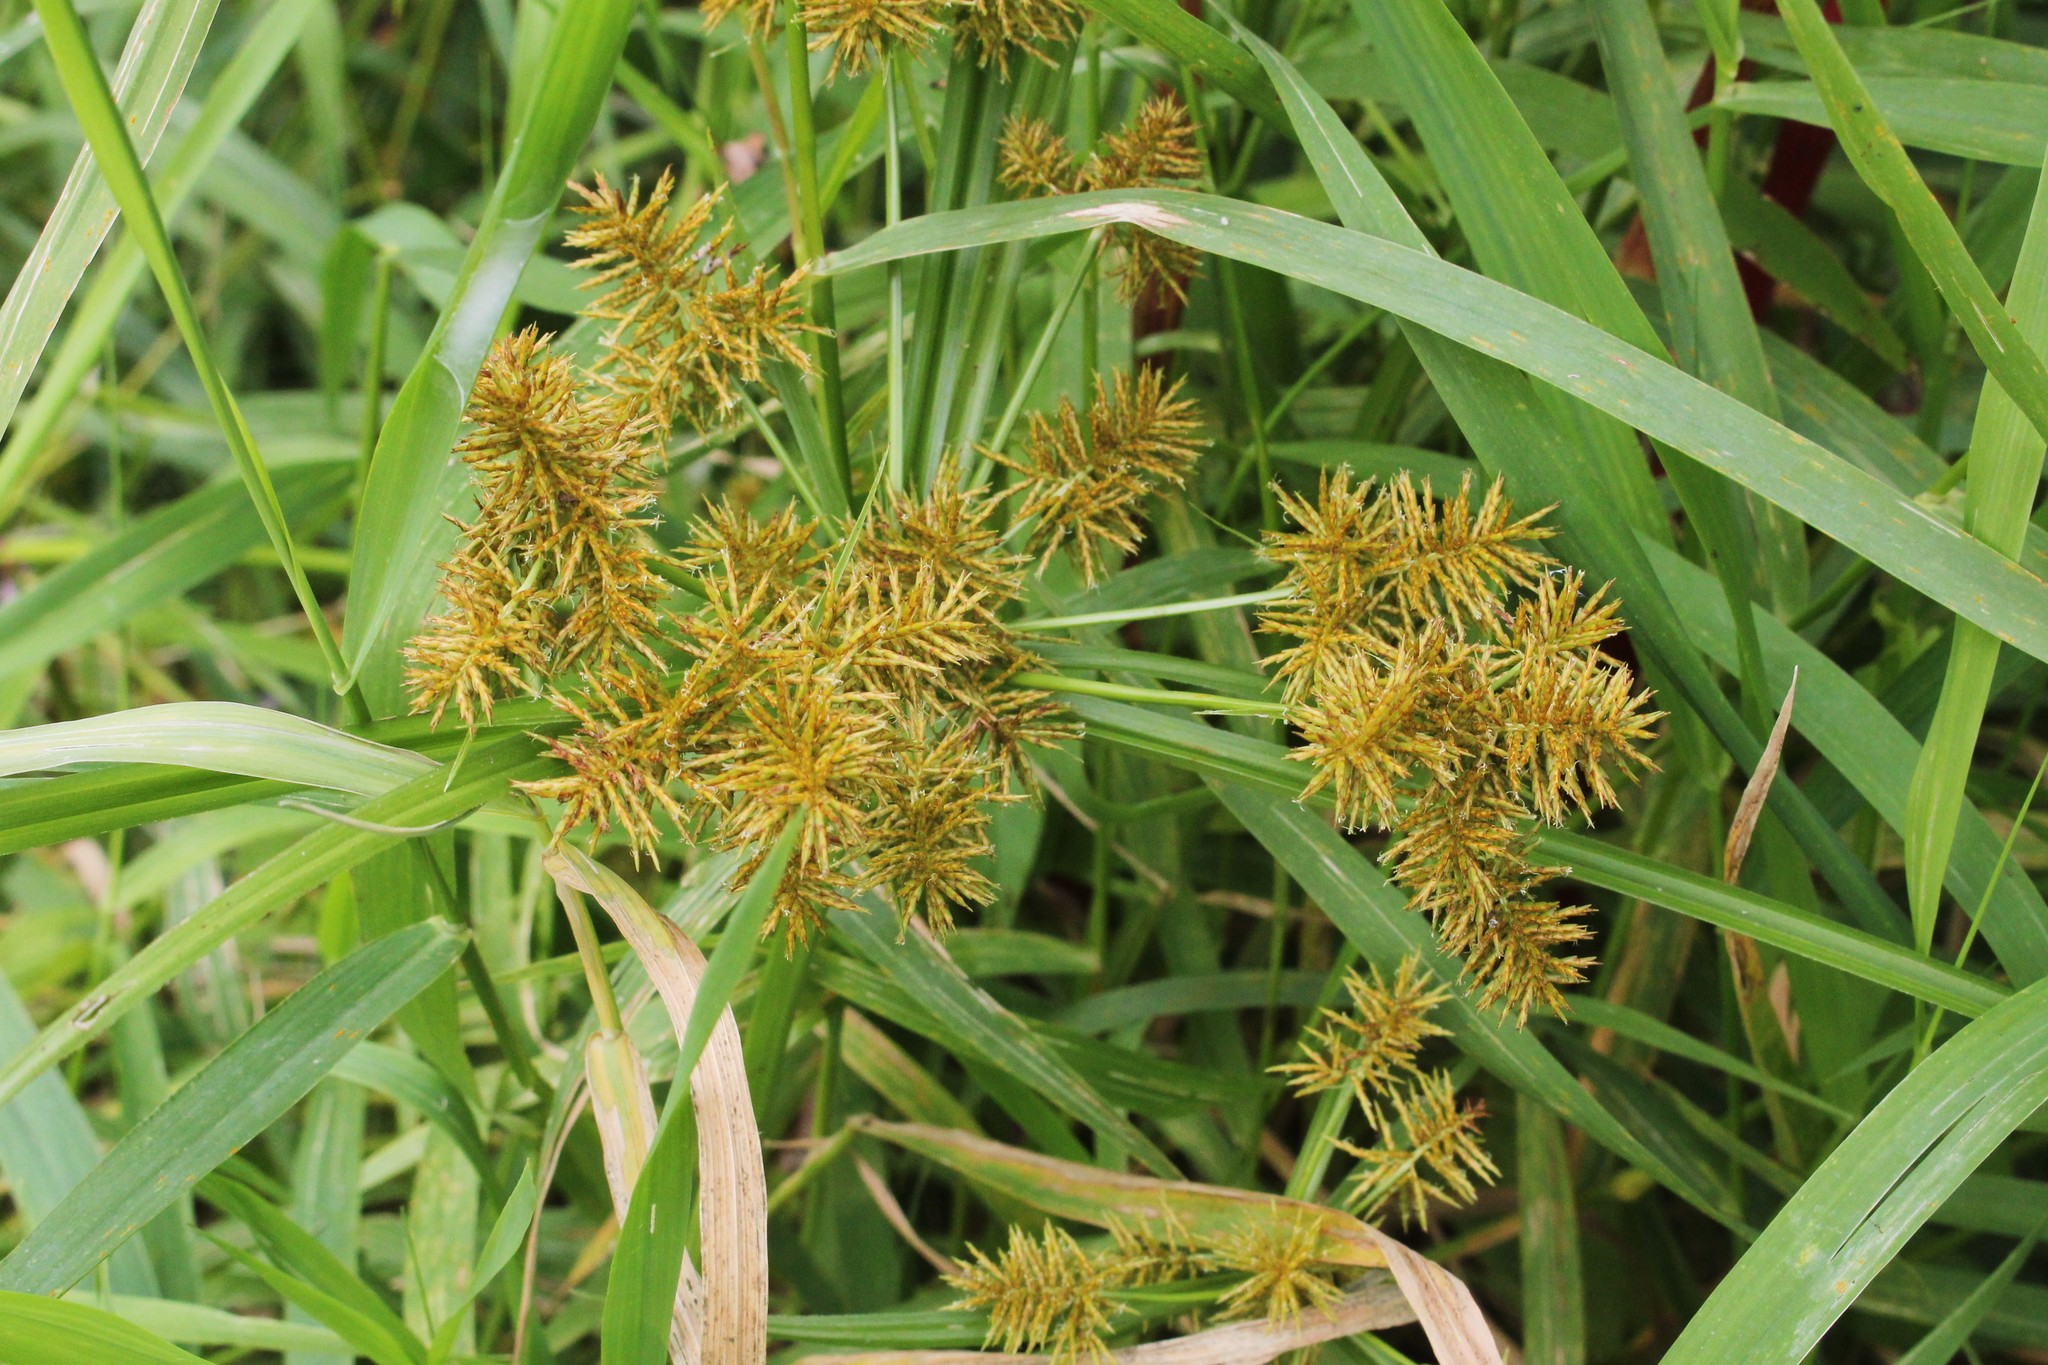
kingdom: Plantae
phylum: Tracheophyta
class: Liliopsida
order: Poales
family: Cyperaceae
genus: Cyperus
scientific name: Cyperus odoratus
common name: Fragrant flatsedge
